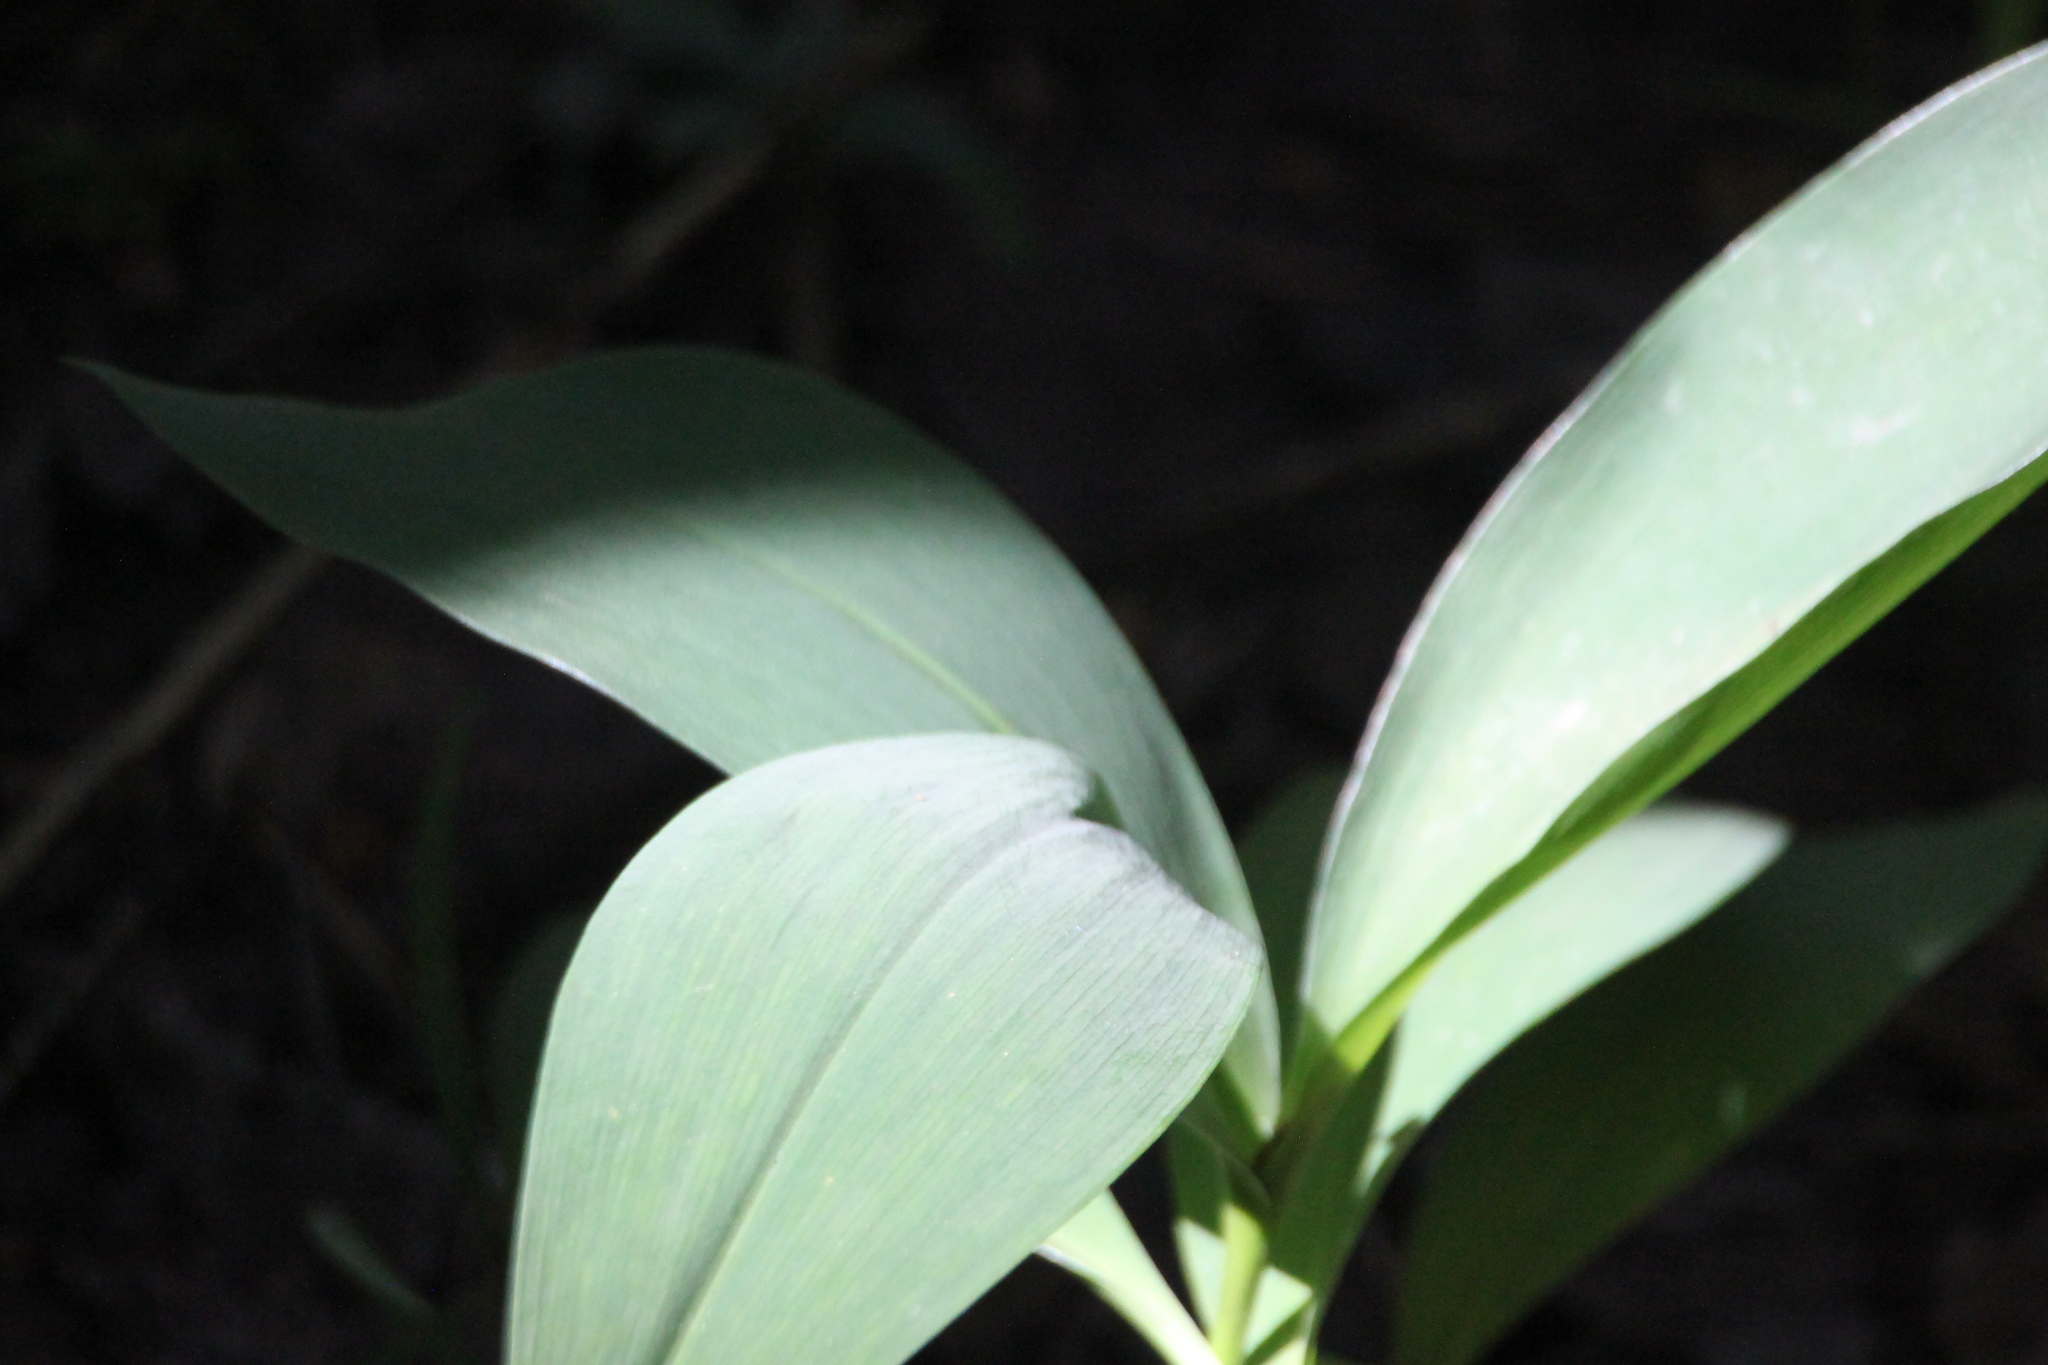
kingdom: Plantae
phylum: Tracheophyta
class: Liliopsida
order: Asparagales
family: Asparagaceae
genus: Convallaria
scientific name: Convallaria majalis
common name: Lily-of-the-valley
